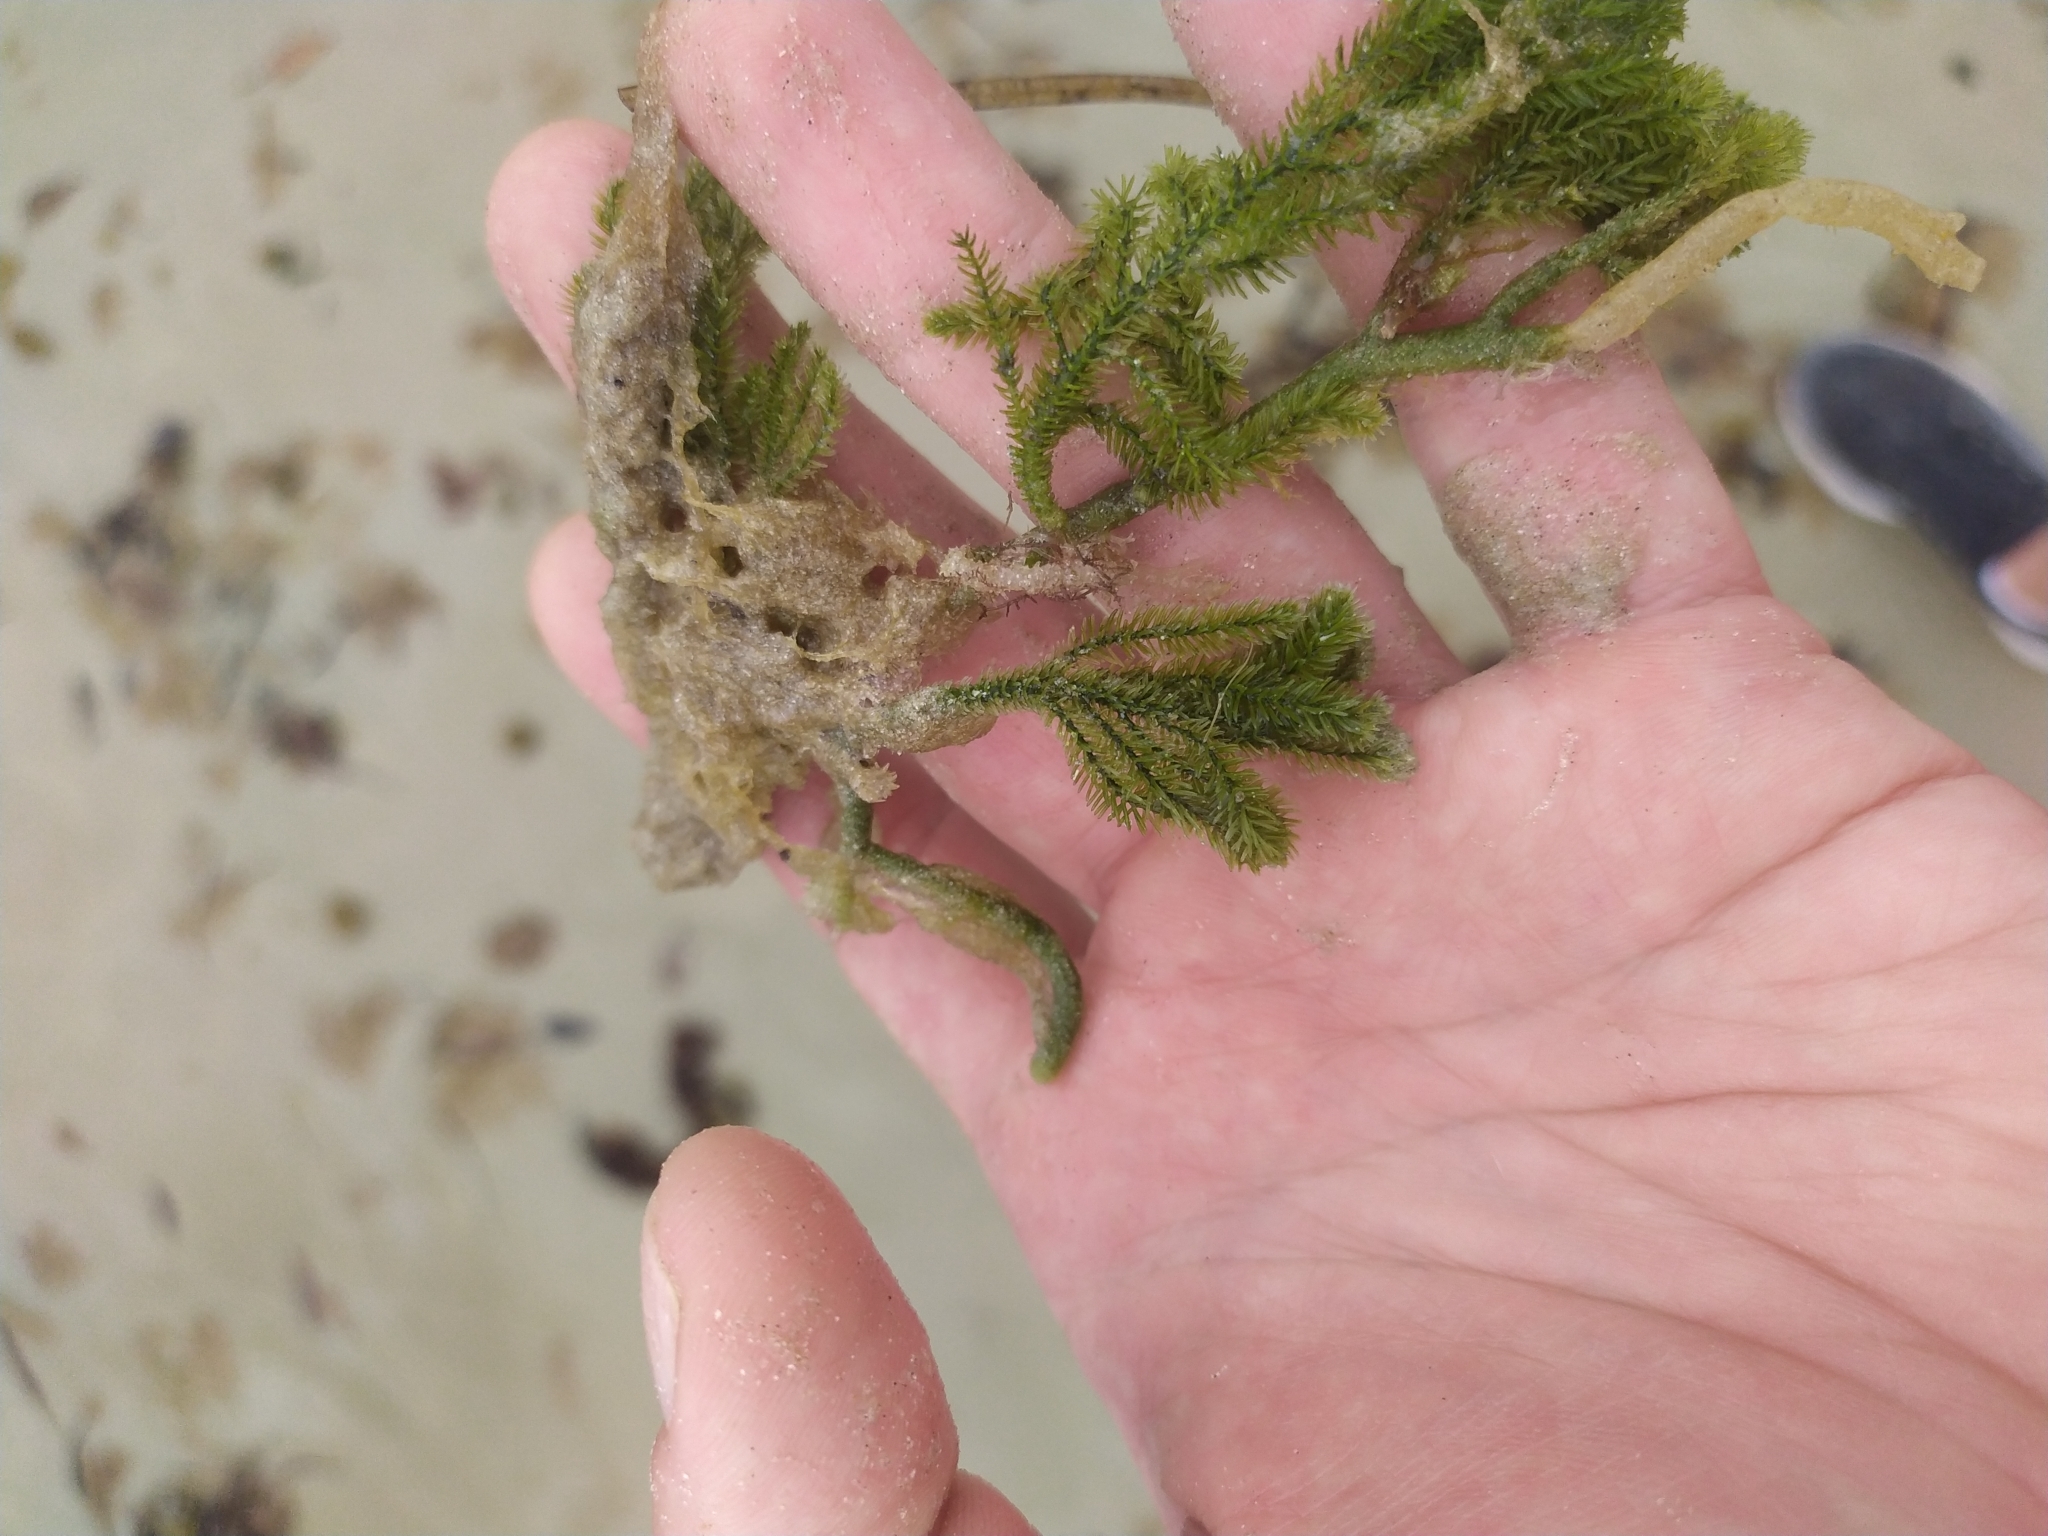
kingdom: Plantae
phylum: Chlorophyta
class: Ulvophyceae
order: Bryopsidales
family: Caulerpaceae
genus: Caulerpa
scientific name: Caulerpa flexilis
